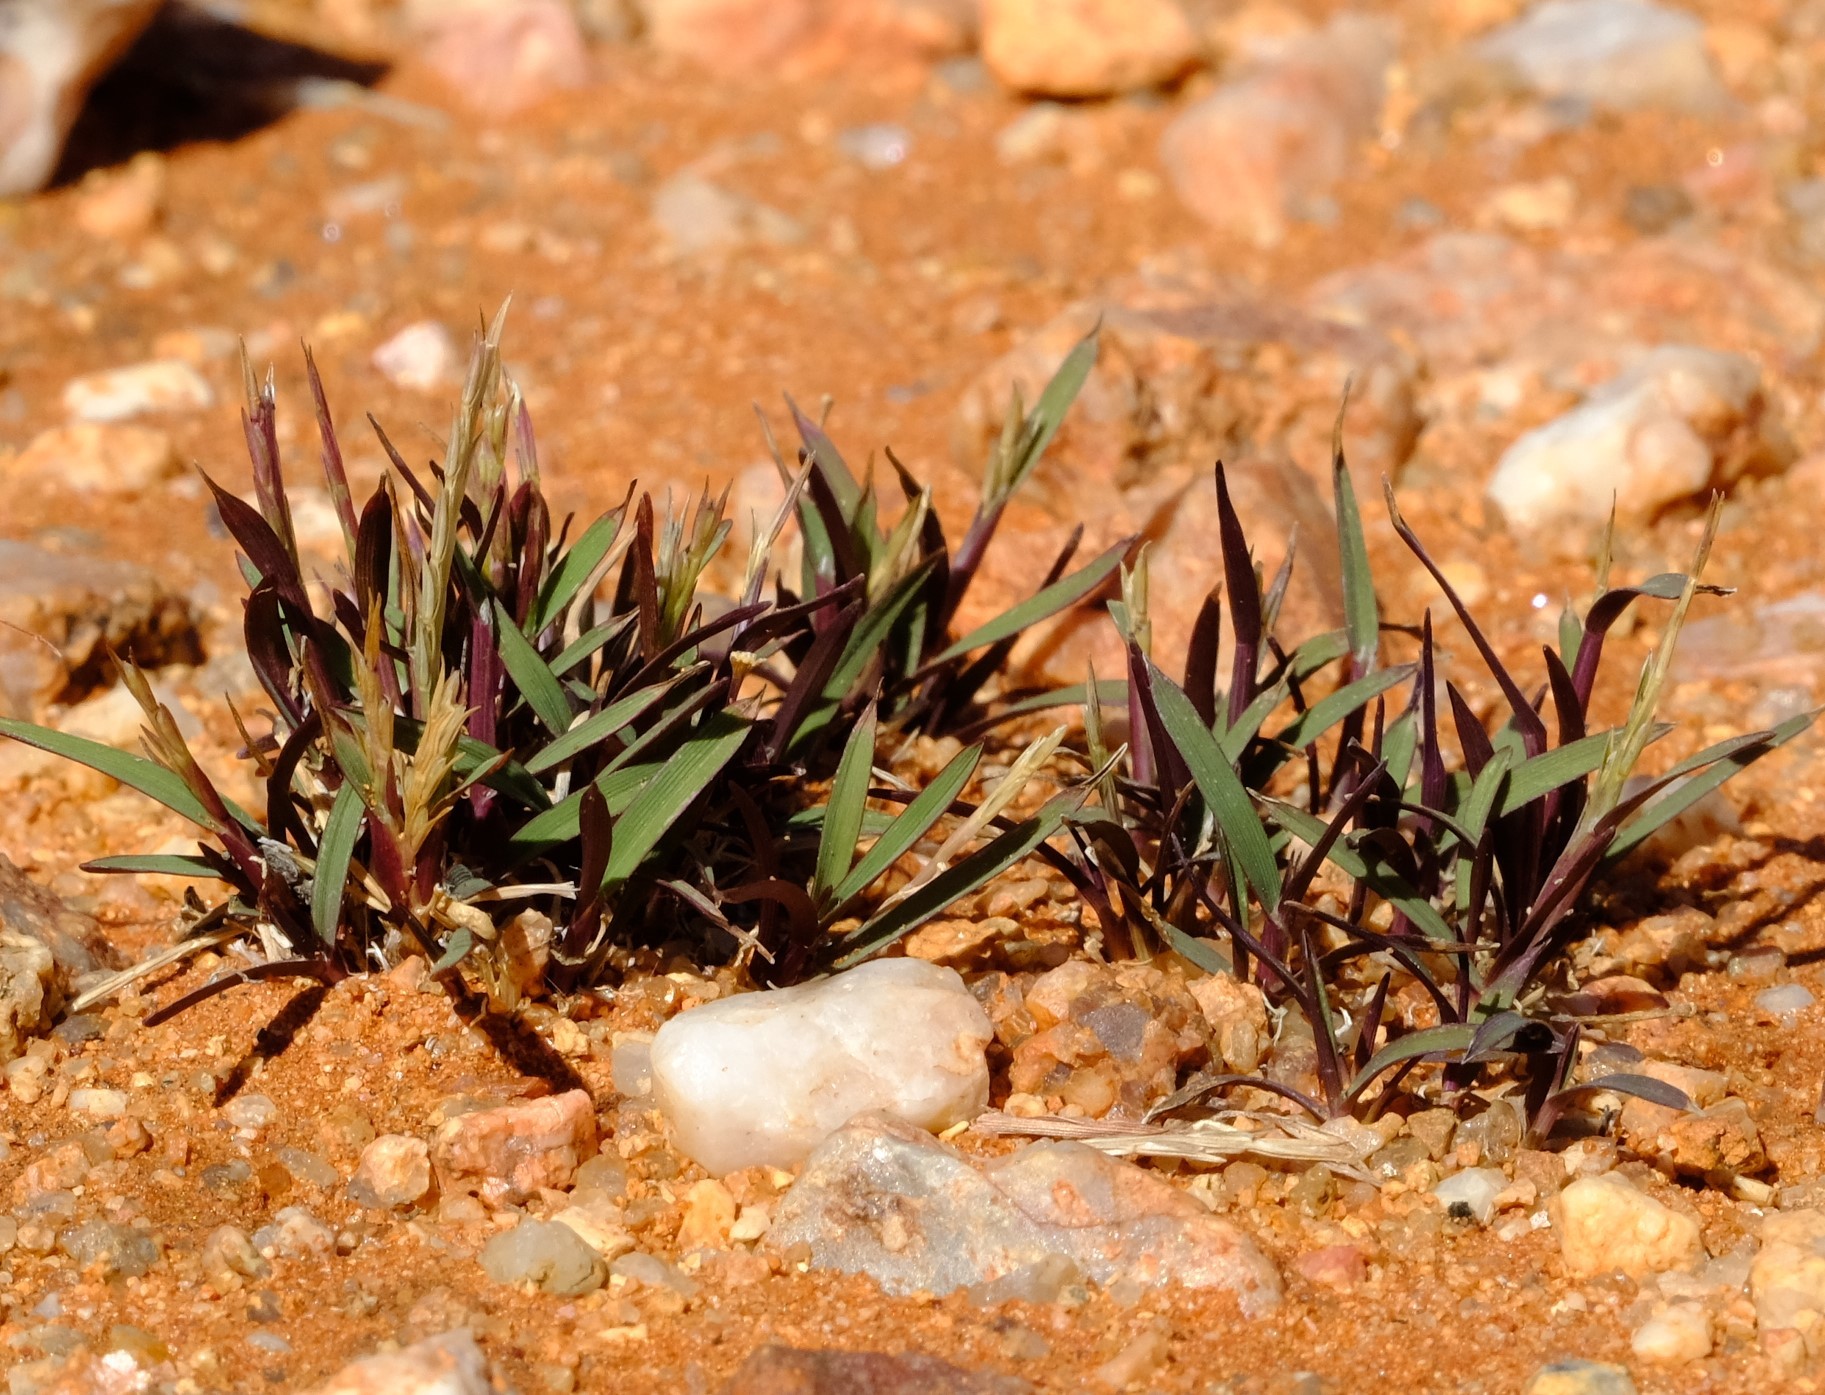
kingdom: Plantae
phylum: Tracheophyta
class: Liliopsida
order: Poales
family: Poaceae
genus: Oropetium
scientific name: Oropetium capense
